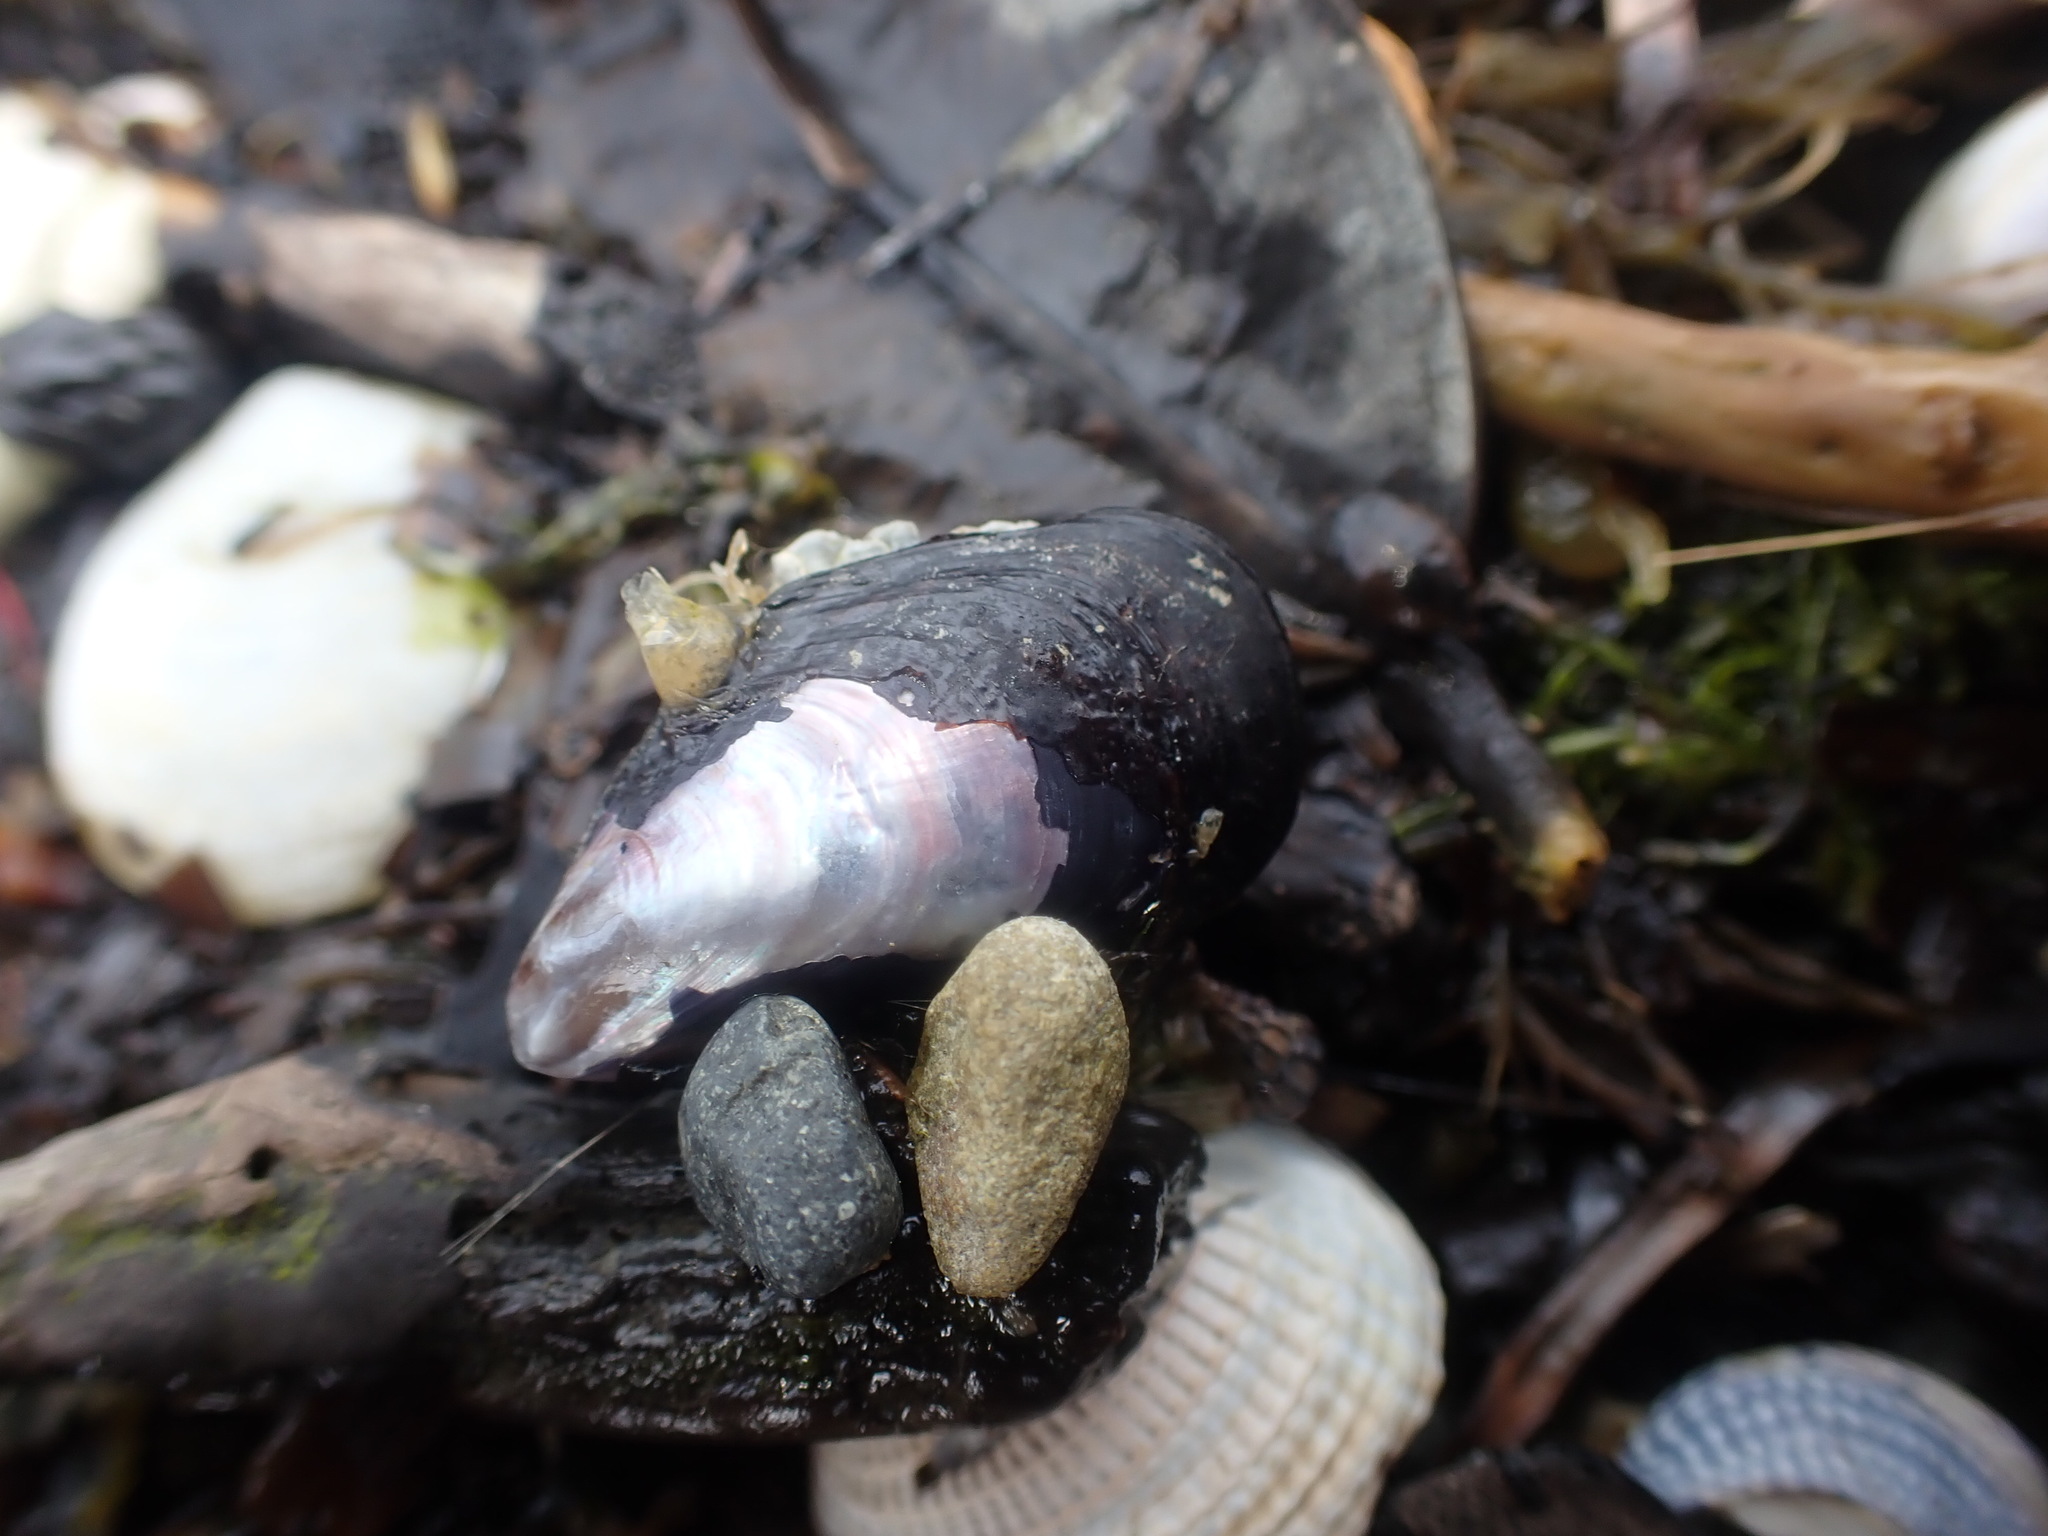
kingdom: Animalia
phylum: Mollusca
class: Bivalvia
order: Mytilida
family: Mytilidae
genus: Xenostrobus
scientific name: Xenostrobus neozelanicus
